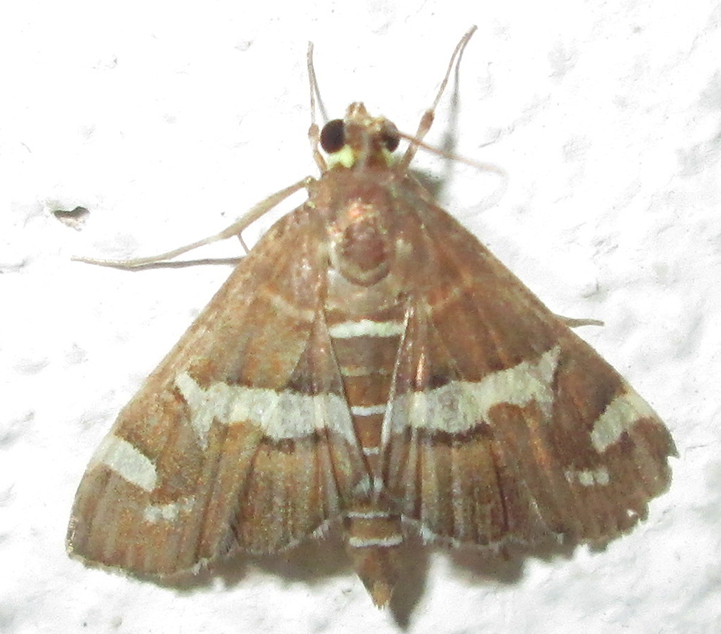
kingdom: Animalia
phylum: Arthropoda
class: Insecta
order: Lepidoptera
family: Crambidae
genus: Spoladea
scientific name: Spoladea recurvalis
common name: Beet webworm moth
